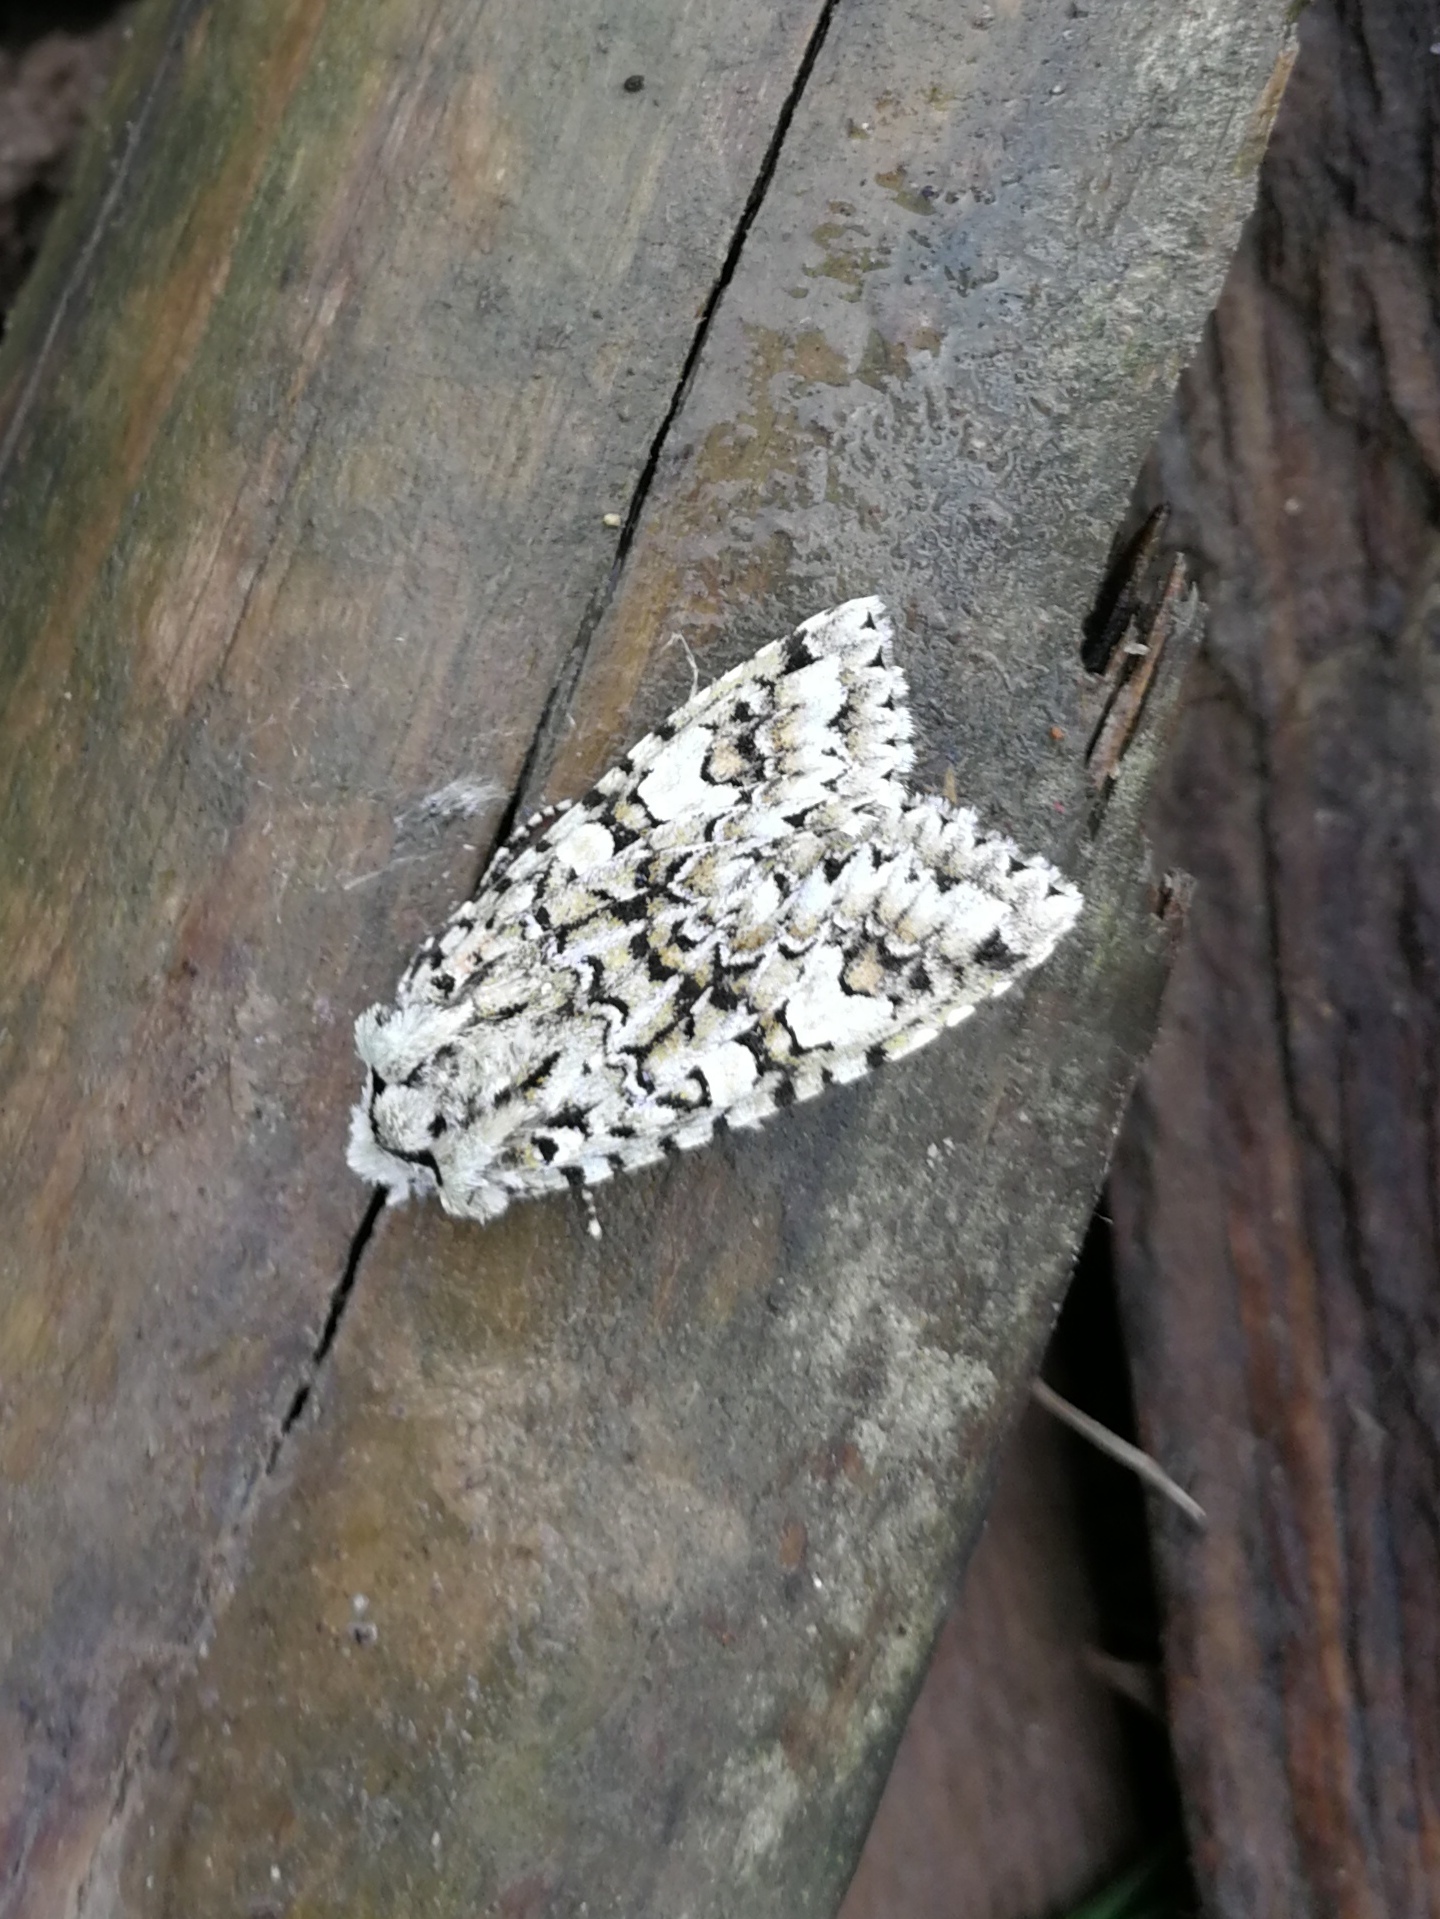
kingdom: Animalia
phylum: Arthropoda
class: Insecta
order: Lepidoptera
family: Noctuidae
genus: Griposia
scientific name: Griposia aprilina
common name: Merveille du jour
